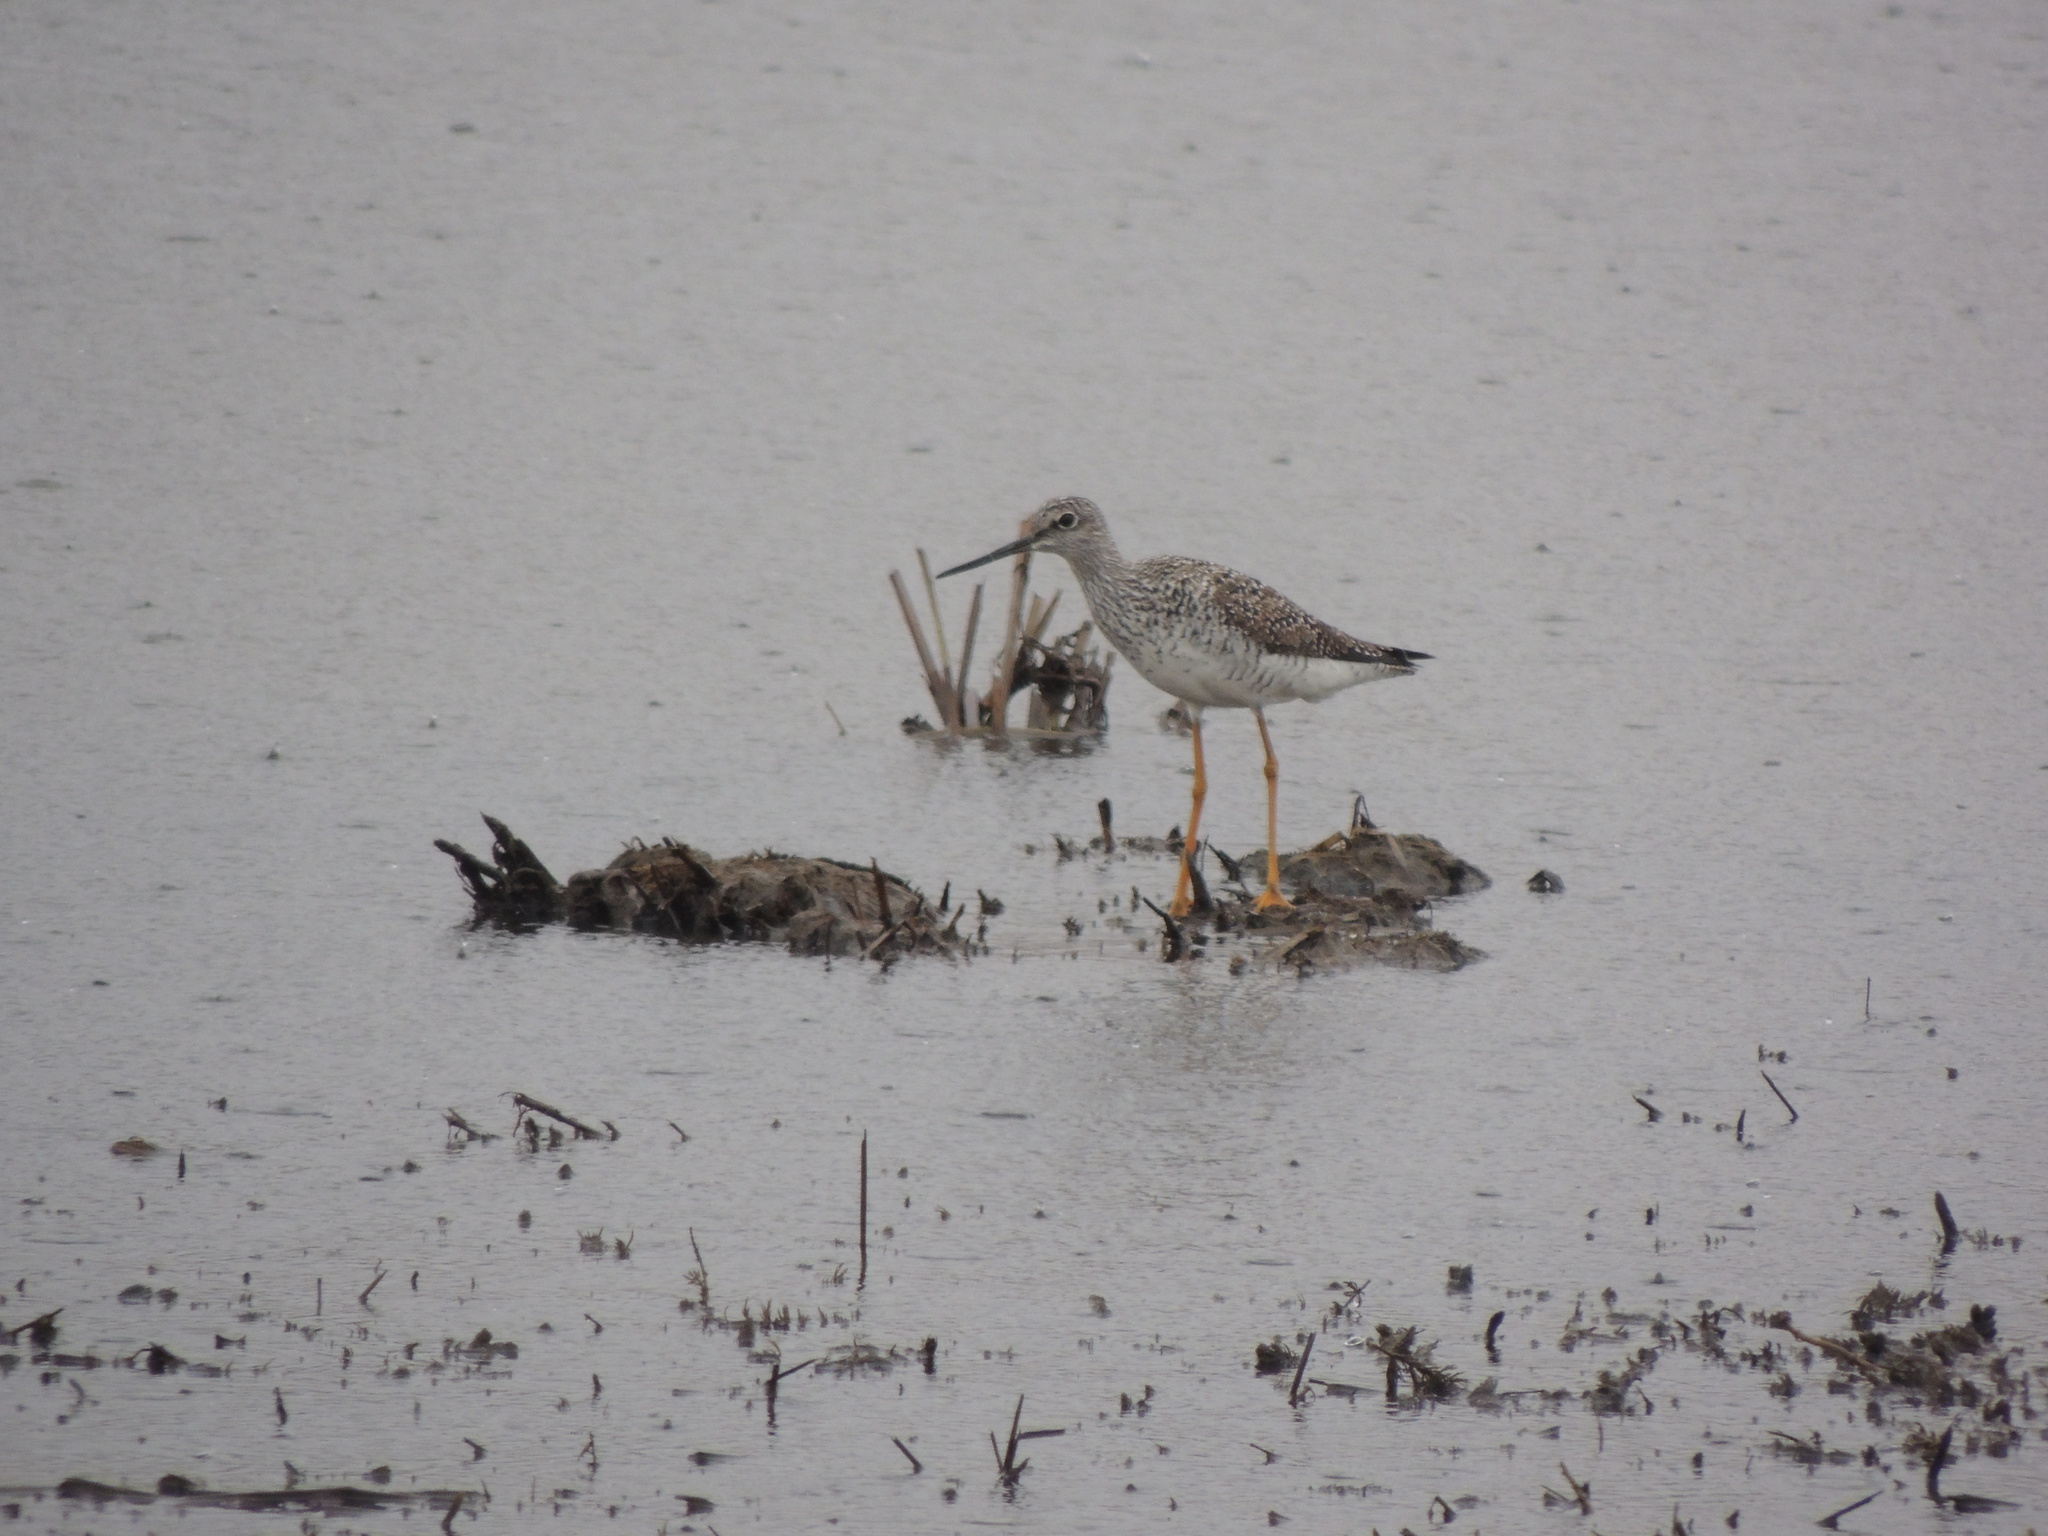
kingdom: Animalia
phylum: Chordata
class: Aves
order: Charadriiformes
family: Scolopacidae
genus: Tringa
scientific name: Tringa melanoleuca
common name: Greater yellowlegs
